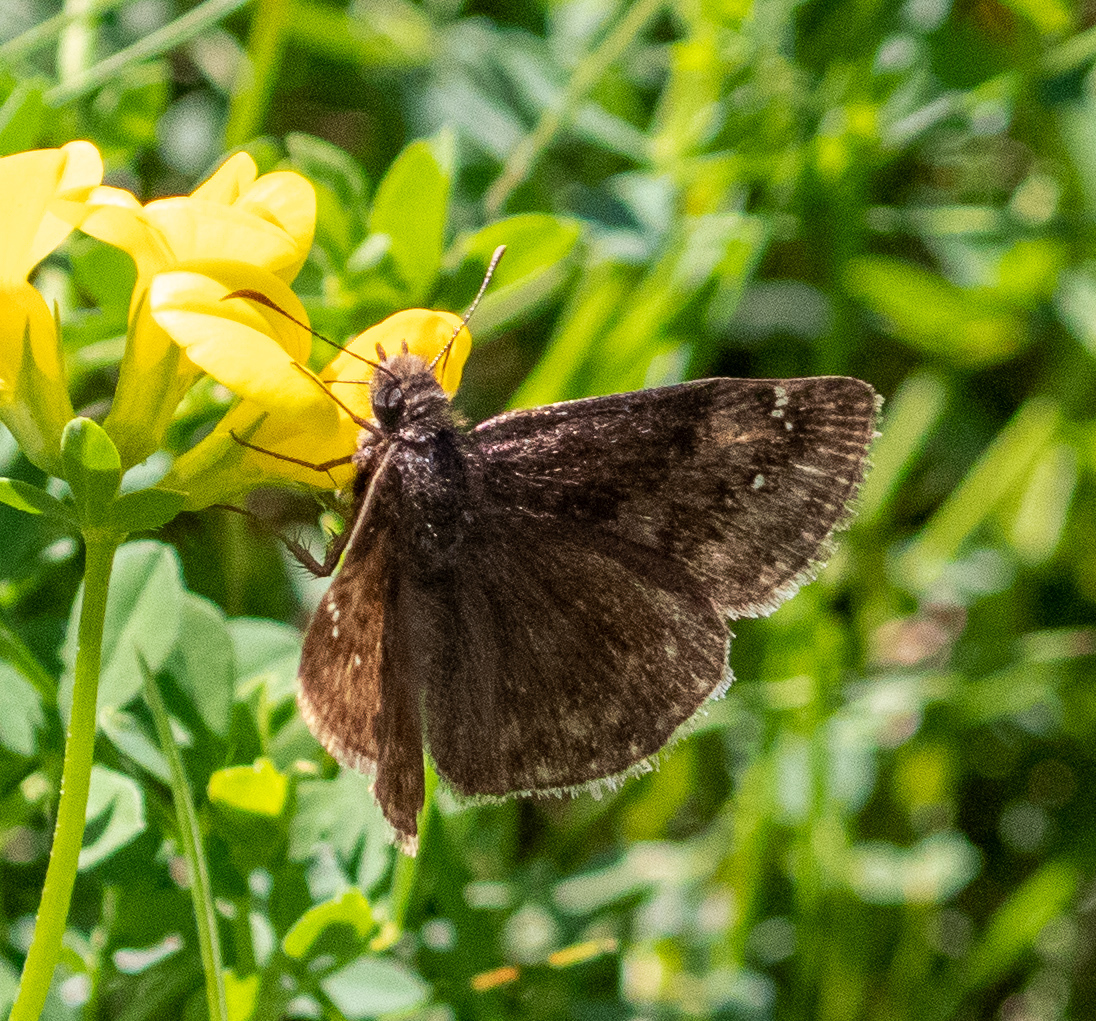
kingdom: Animalia
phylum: Arthropoda
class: Insecta
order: Lepidoptera
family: Hesperiidae
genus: Erynnis
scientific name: Erynnis baptisiae
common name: Wild indigo duskywing
